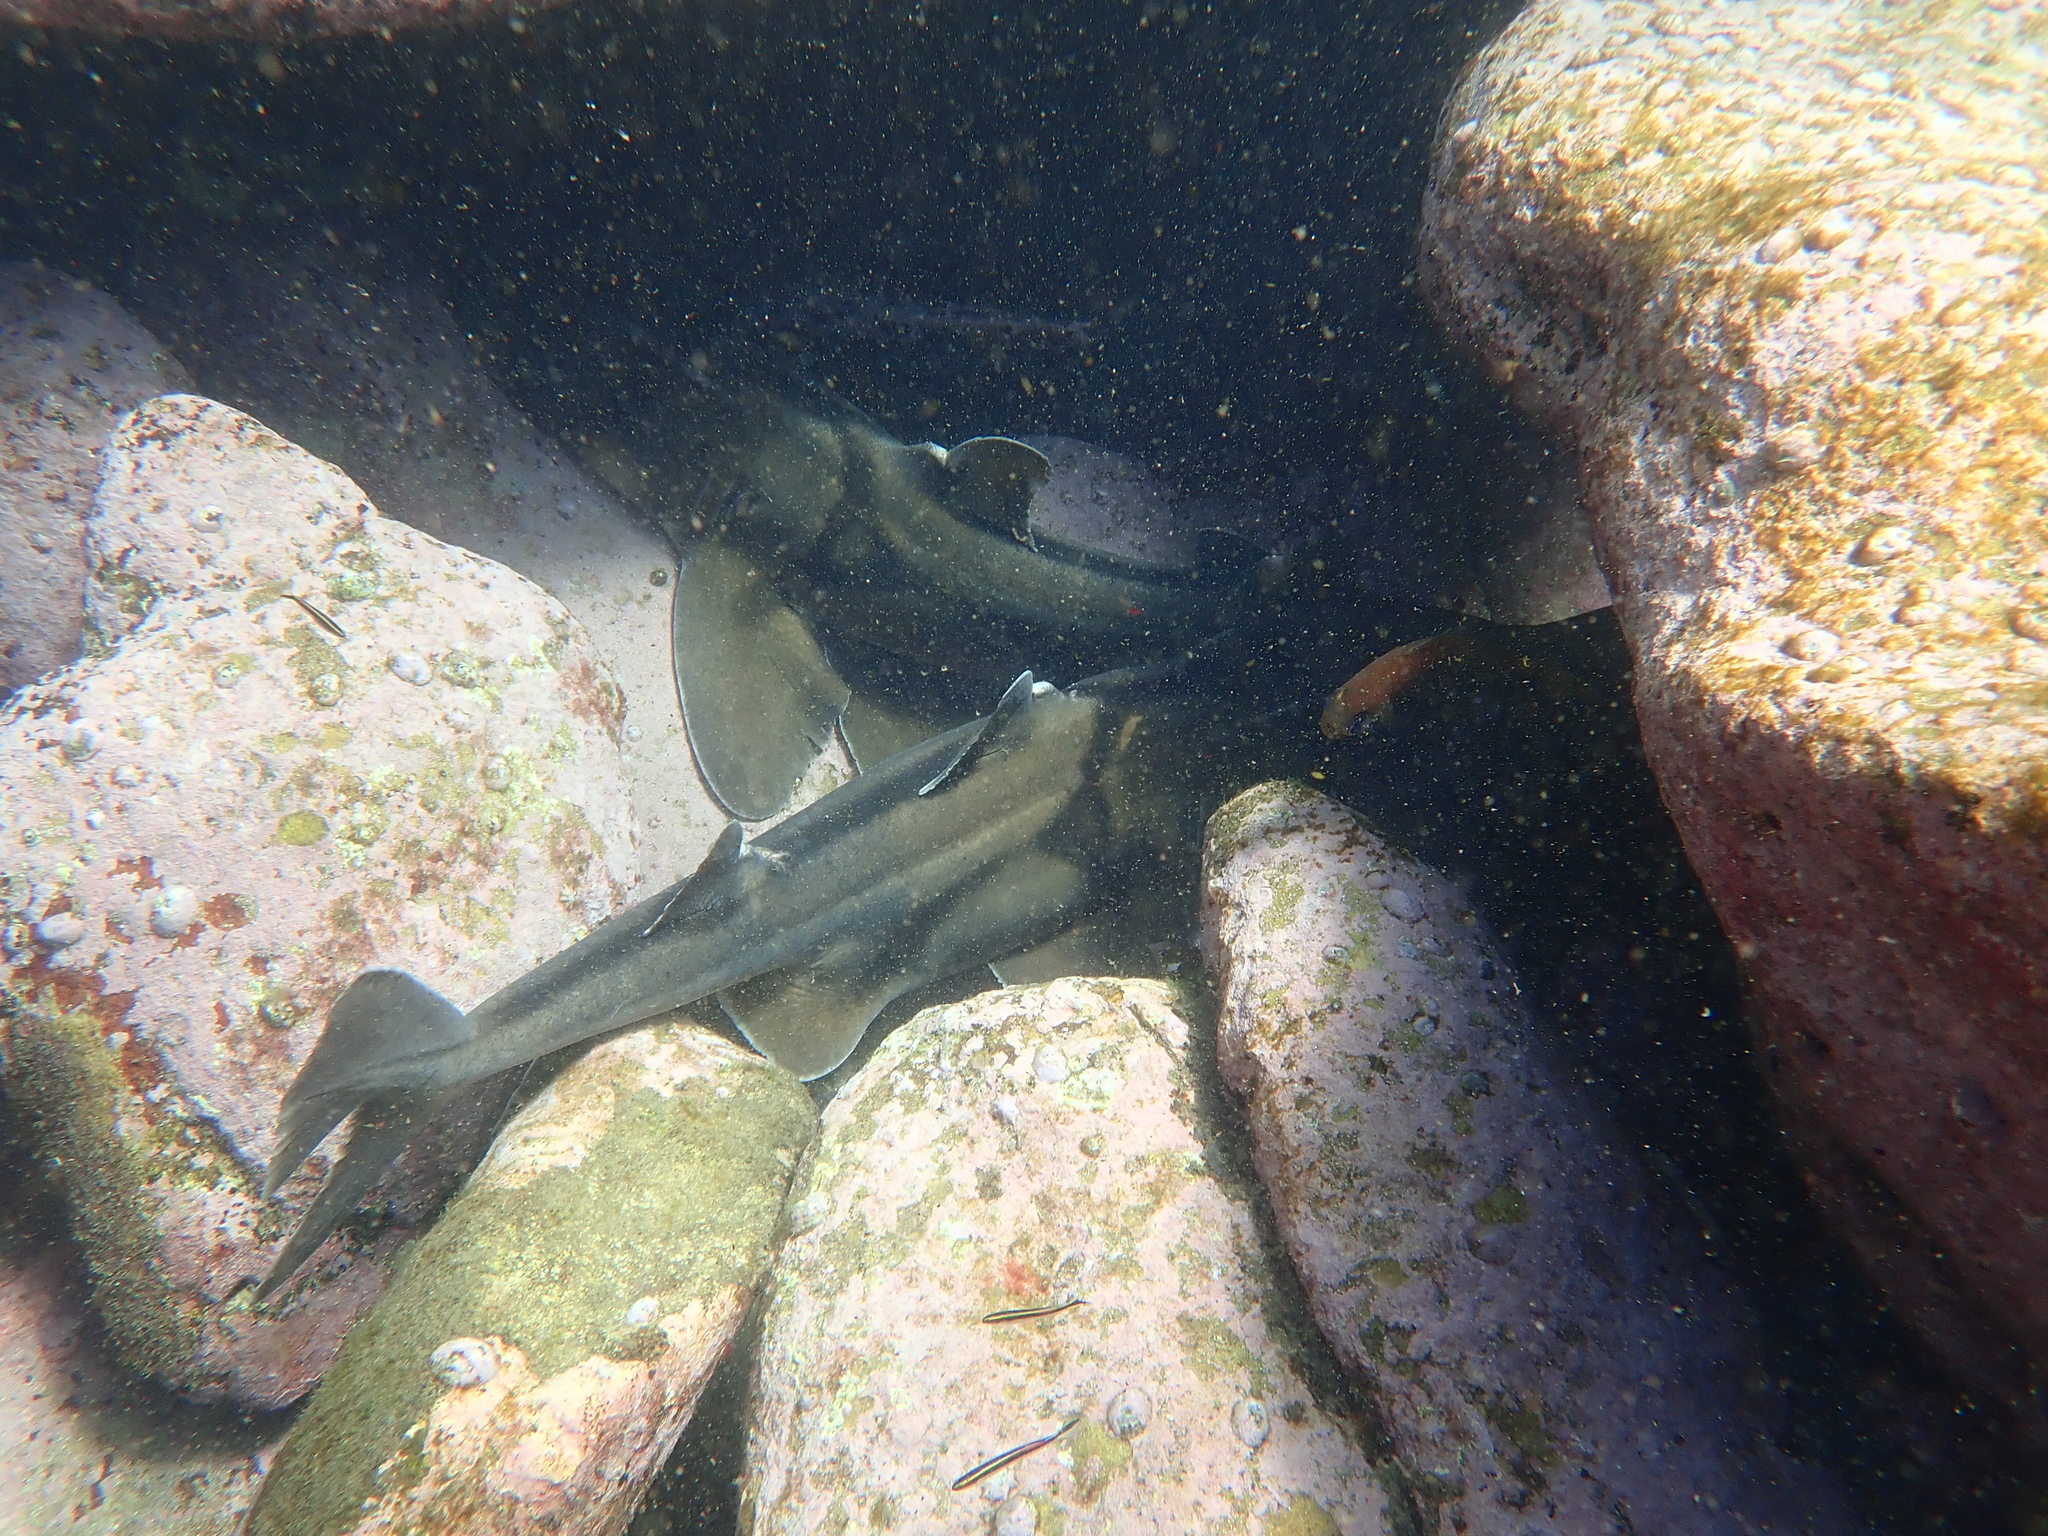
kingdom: Animalia
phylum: Chordata
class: Elasmobranchii
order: Heterodontiformes
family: Heterodontidae
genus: Heterodontus
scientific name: Heterodontus portusjacksoni
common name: Port jackson shark
